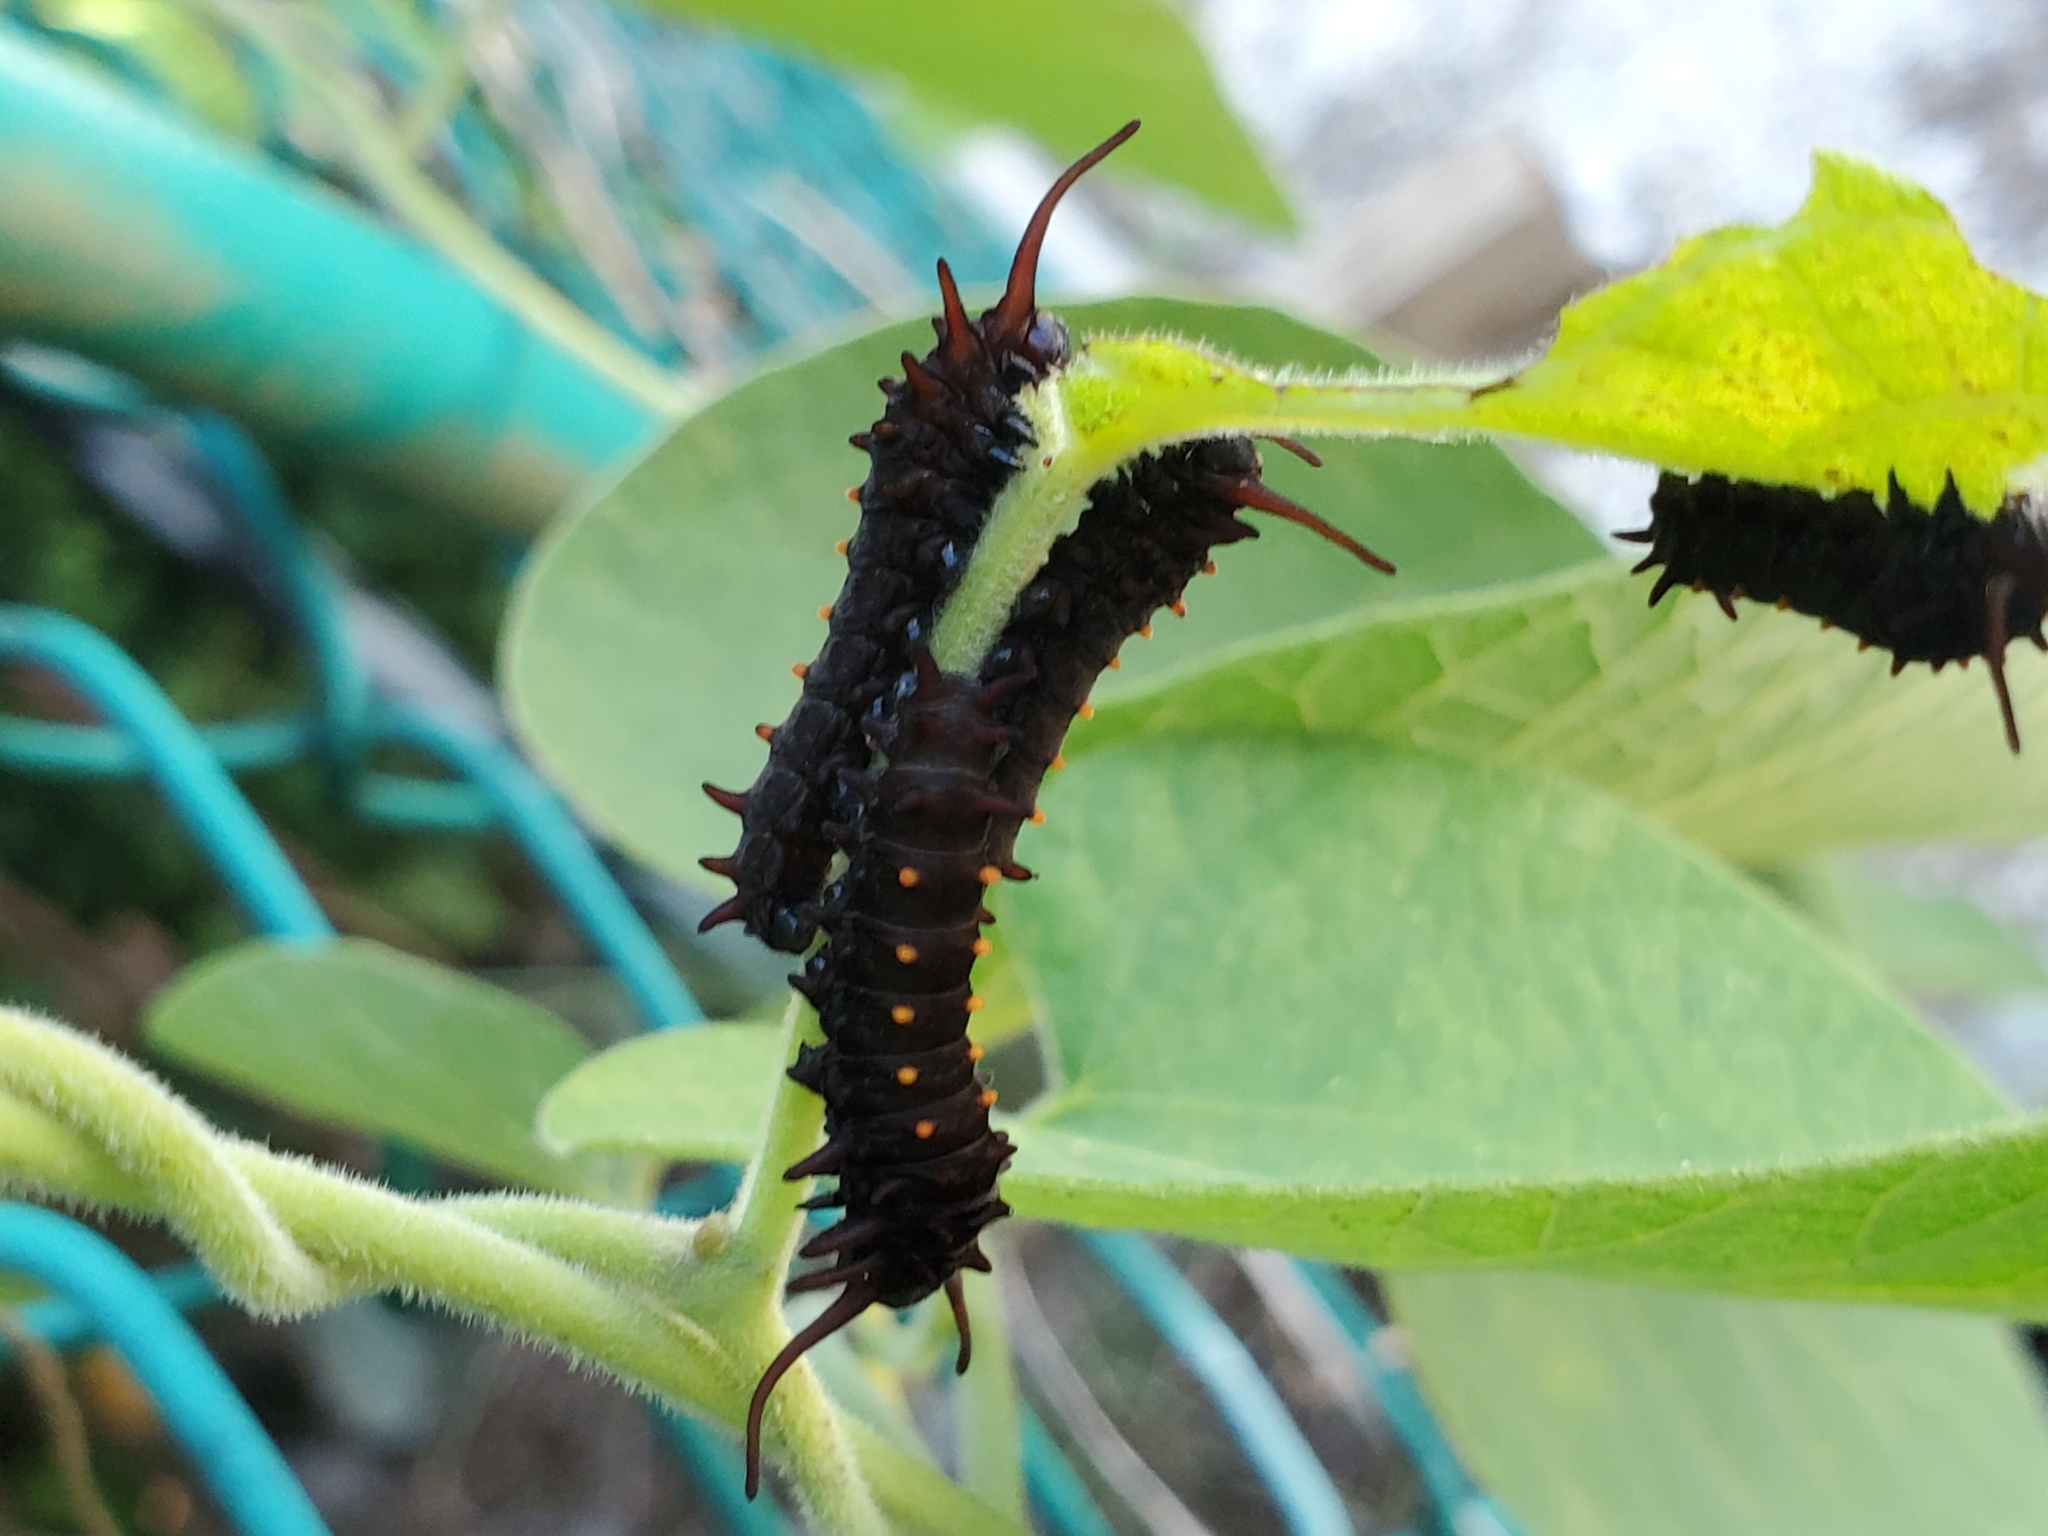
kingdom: Animalia
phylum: Arthropoda
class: Insecta
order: Lepidoptera
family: Papilionidae
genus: Battus
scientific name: Battus philenor
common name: Pipevine swallowtail
